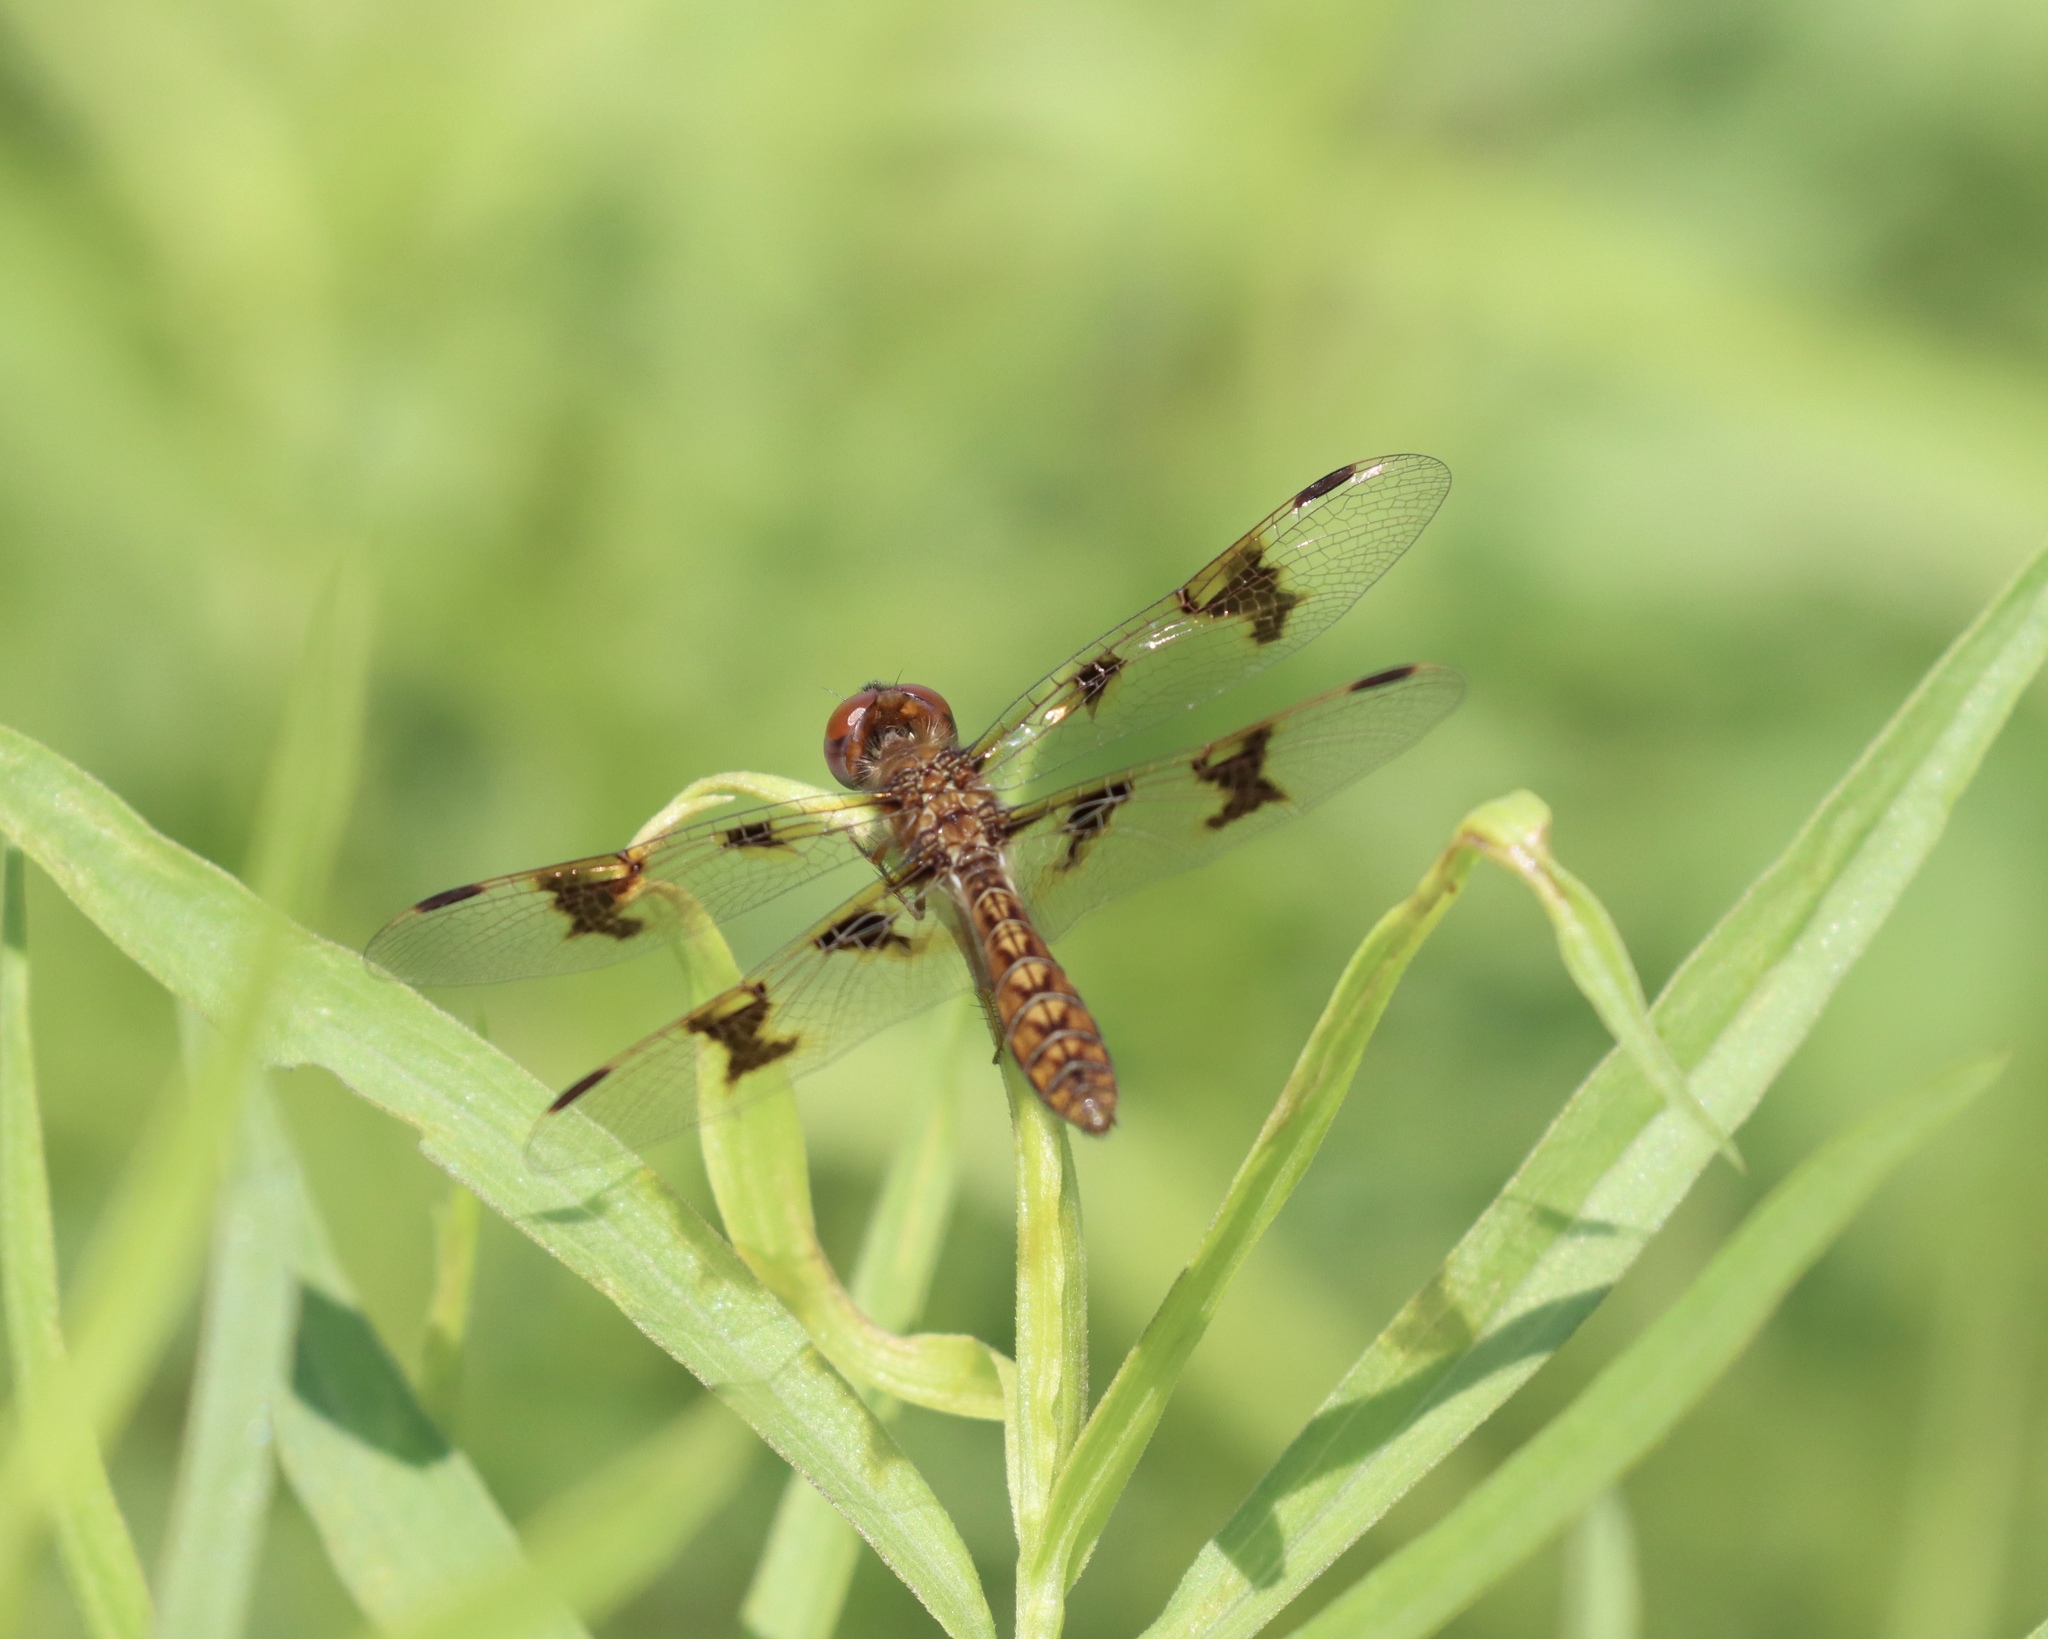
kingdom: Animalia
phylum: Arthropoda
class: Insecta
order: Odonata
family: Libellulidae
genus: Perithemis
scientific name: Perithemis tenera
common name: Eastern amberwing
